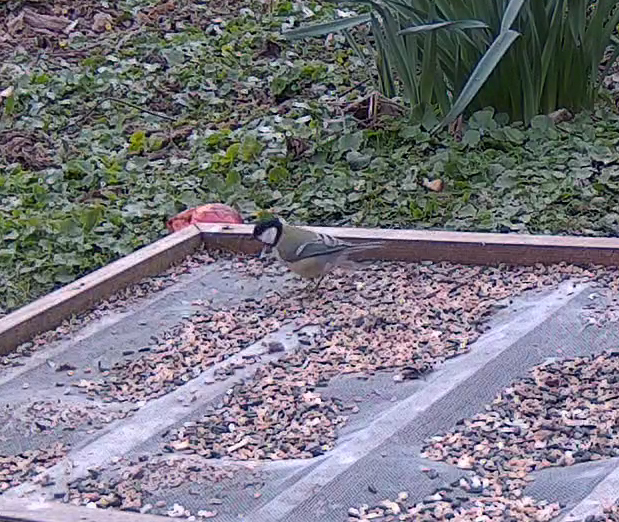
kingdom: Animalia
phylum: Chordata
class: Aves
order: Passeriformes
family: Paridae
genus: Parus
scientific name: Parus major
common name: Great tit
